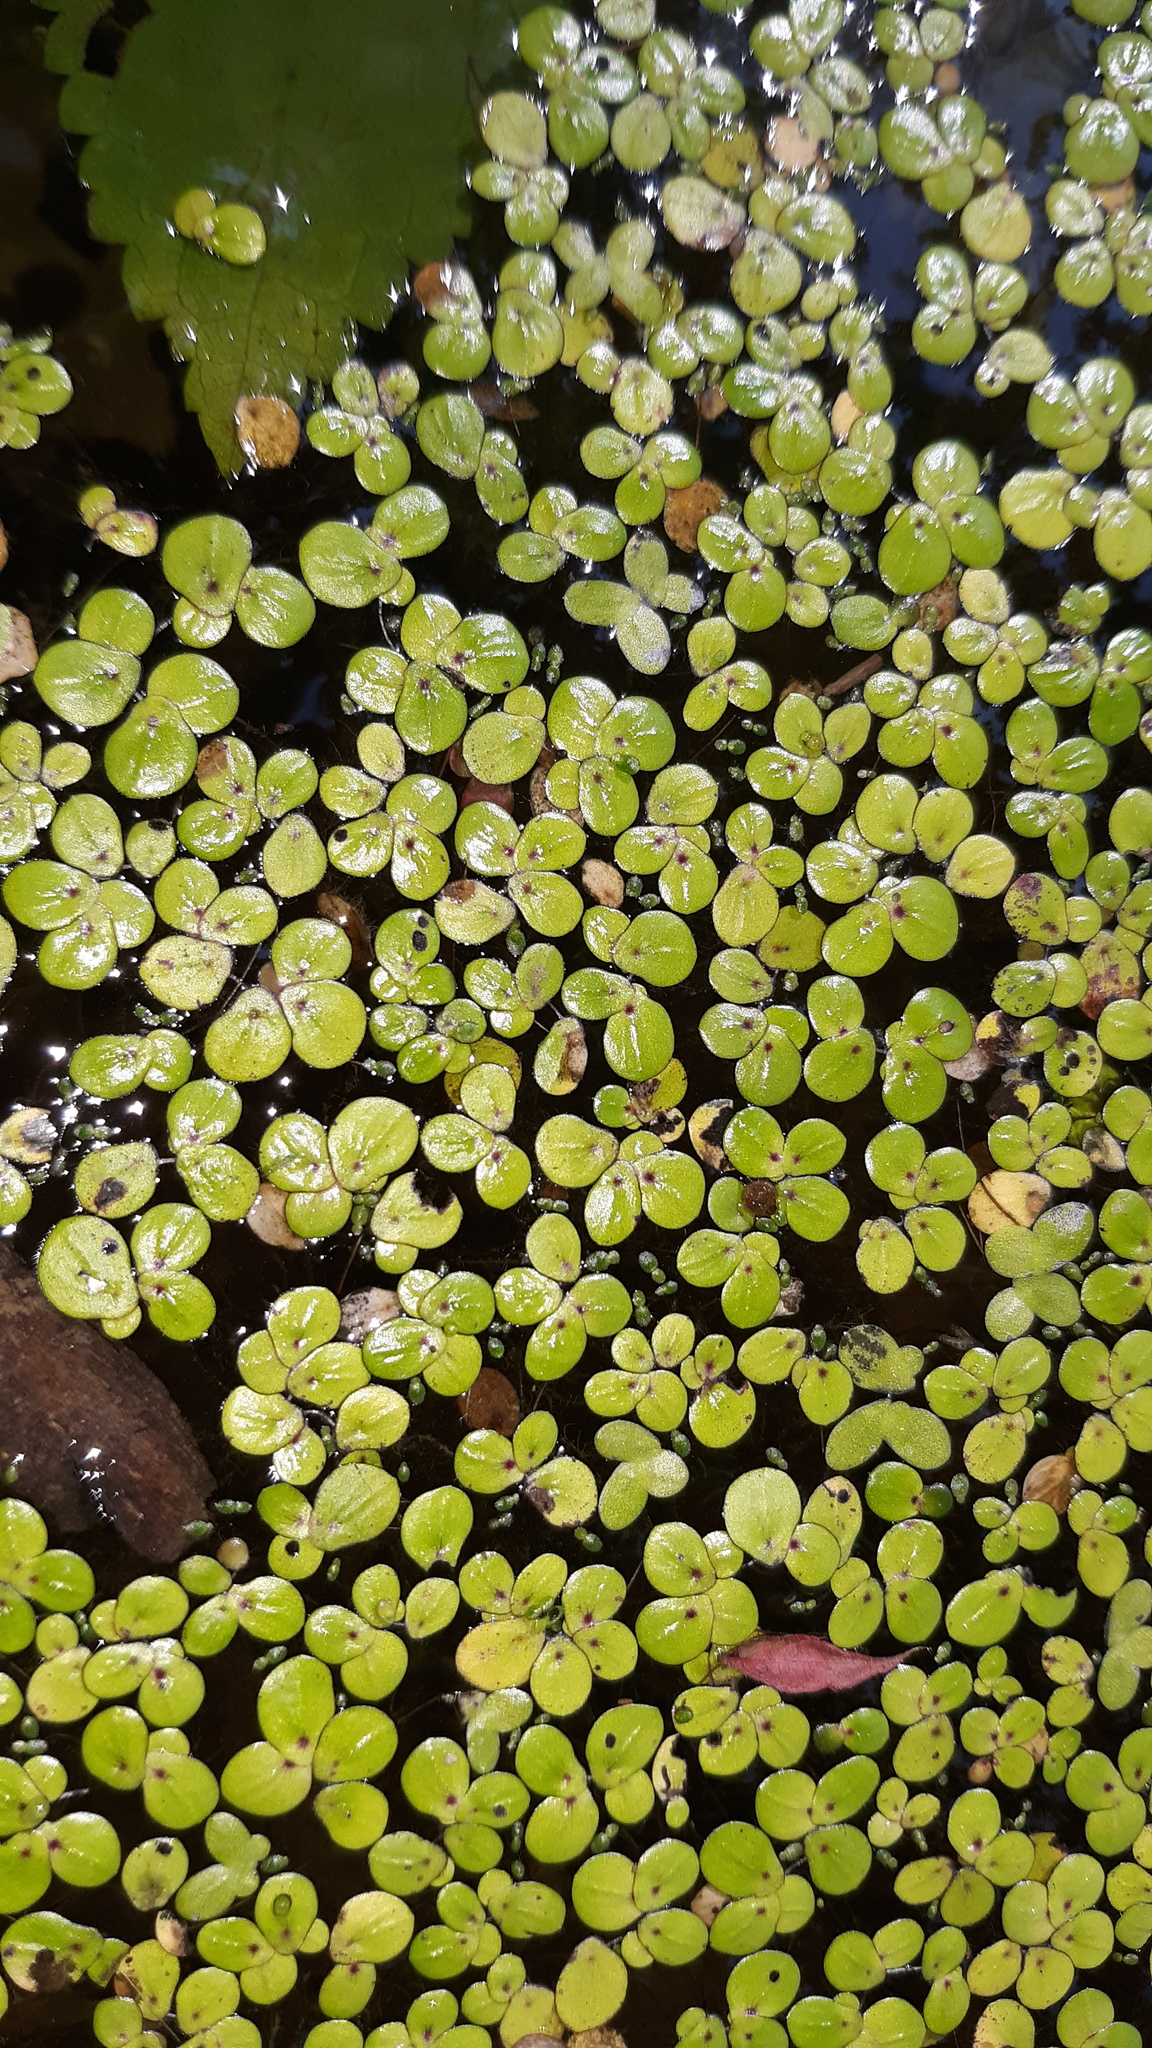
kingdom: Plantae
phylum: Tracheophyta
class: Liliopsida
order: Alismatales
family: Araceae
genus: Spirodela
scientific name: Spirodela polyrhiza
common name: Great duckweed
